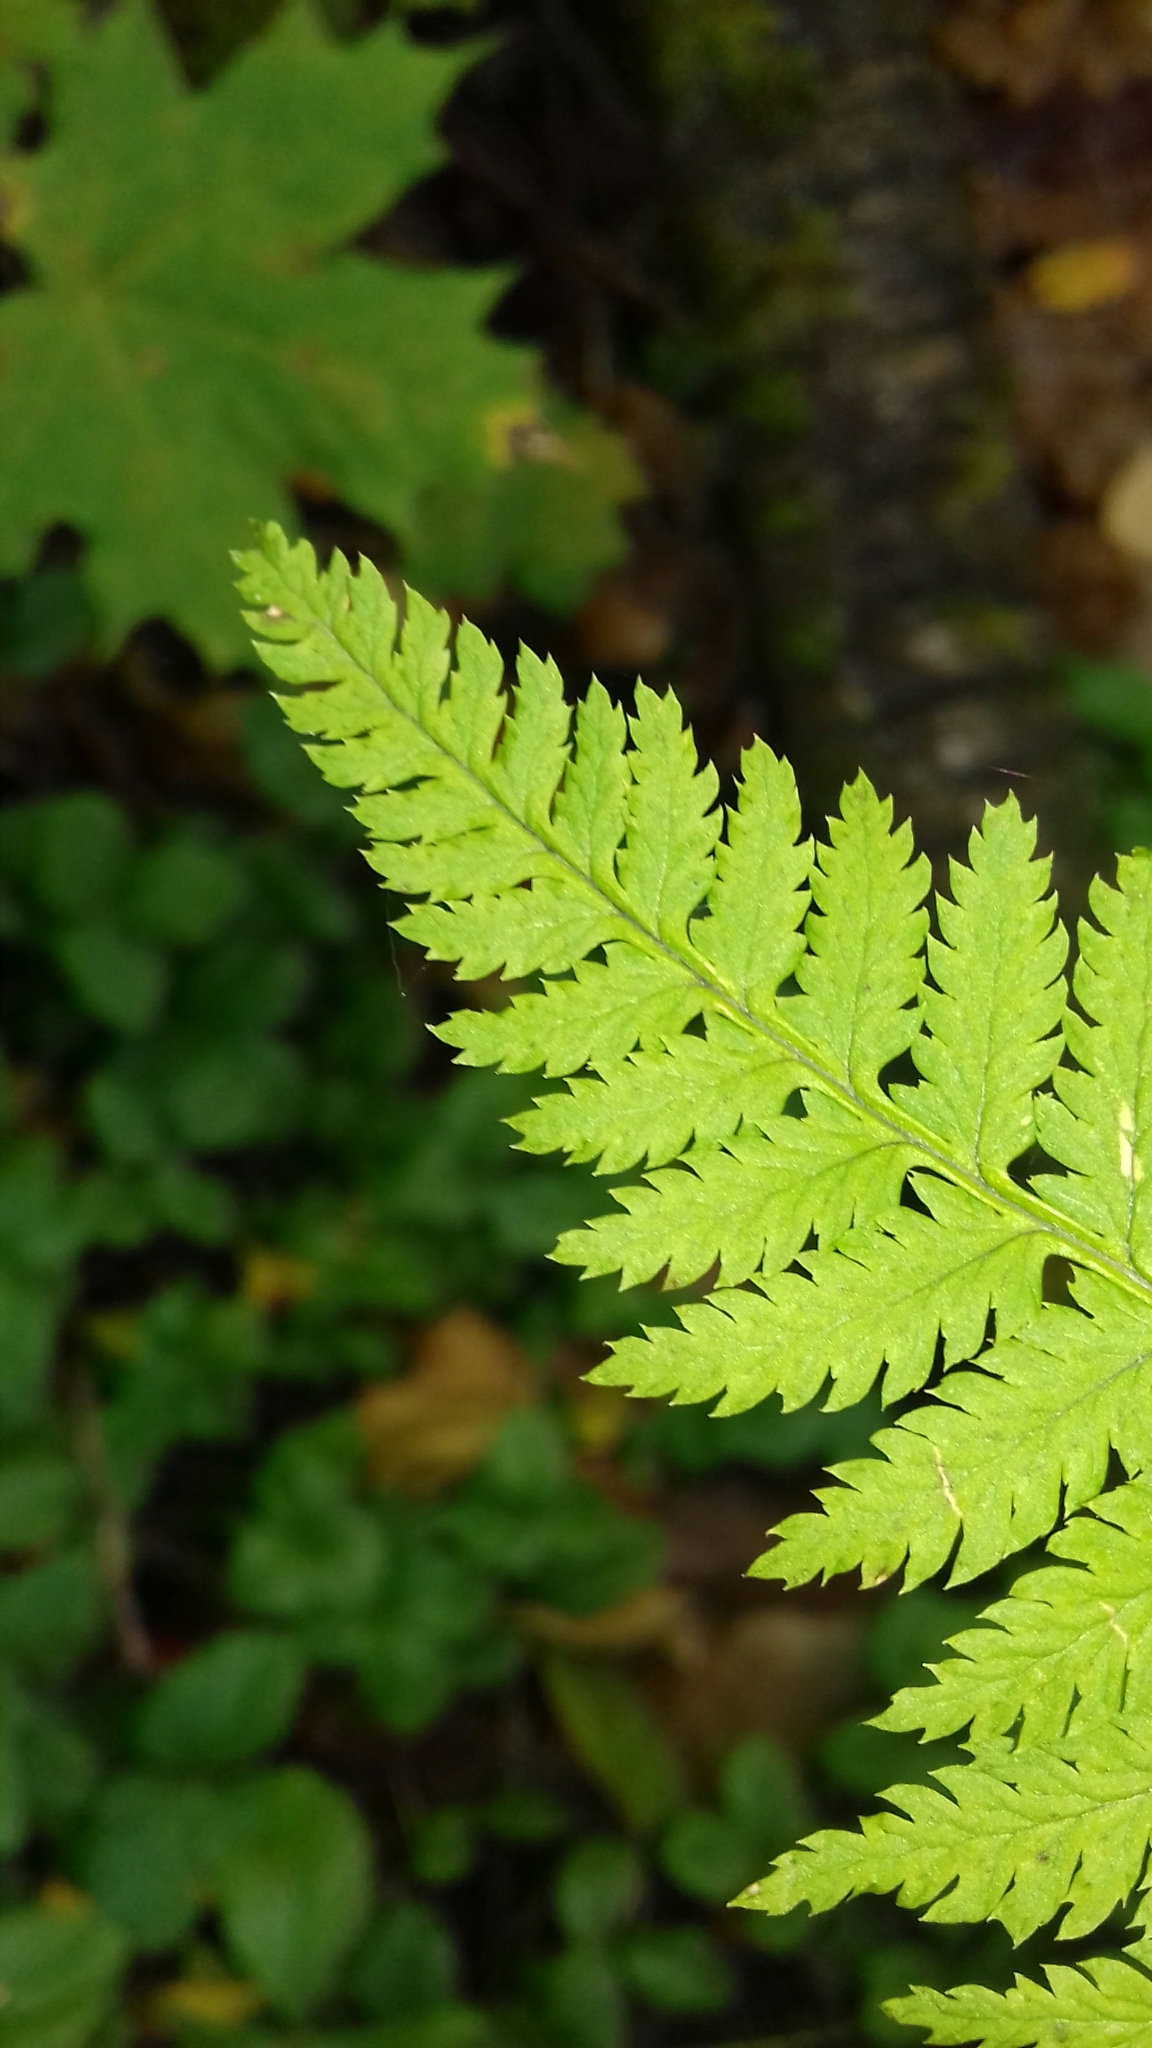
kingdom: Plantae
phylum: Tracheophyta
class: Polypodiopsida
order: Polypodiales
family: Dryopteridaceae
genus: Dryopteris
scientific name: Dryopteris carthusiana
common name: Narrow buckler-fern
